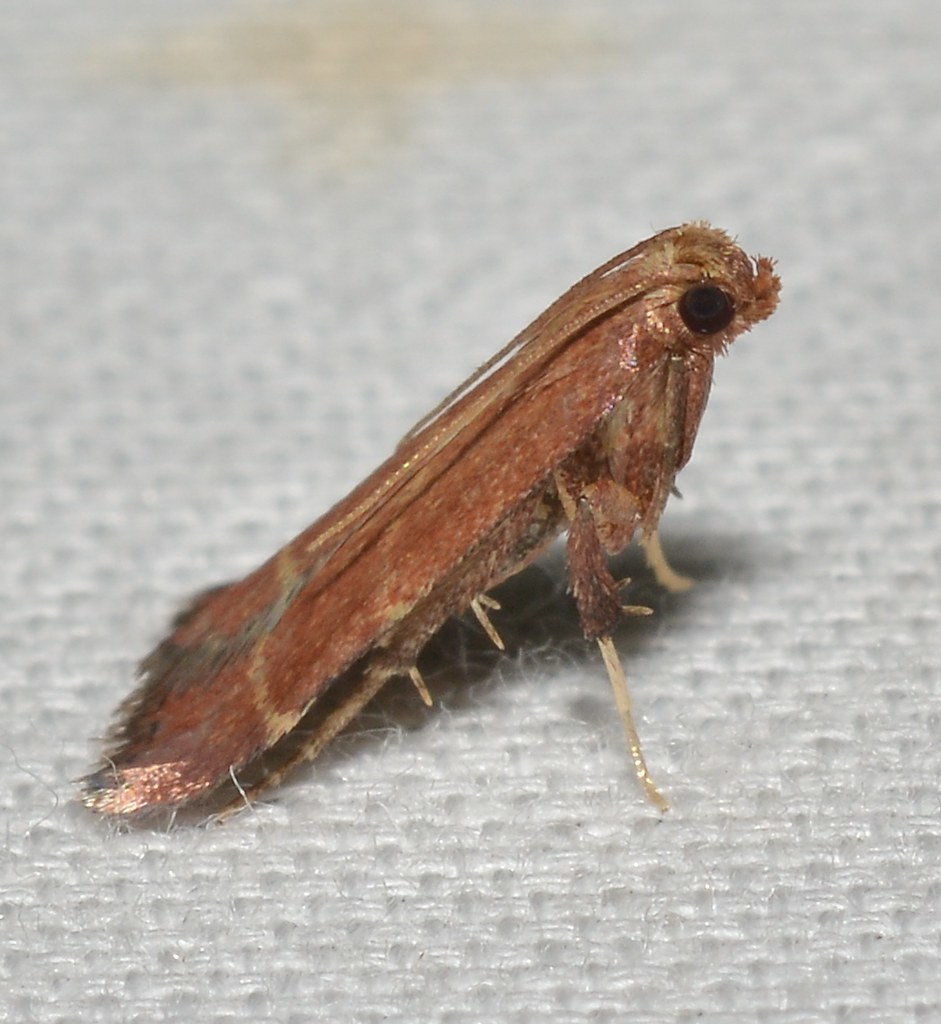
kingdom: Animalia
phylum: Arthropoda
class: Insecta
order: Lepidoptera
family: Pyralidae
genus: Arta
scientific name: Arta statalis
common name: Posturing arta moth
